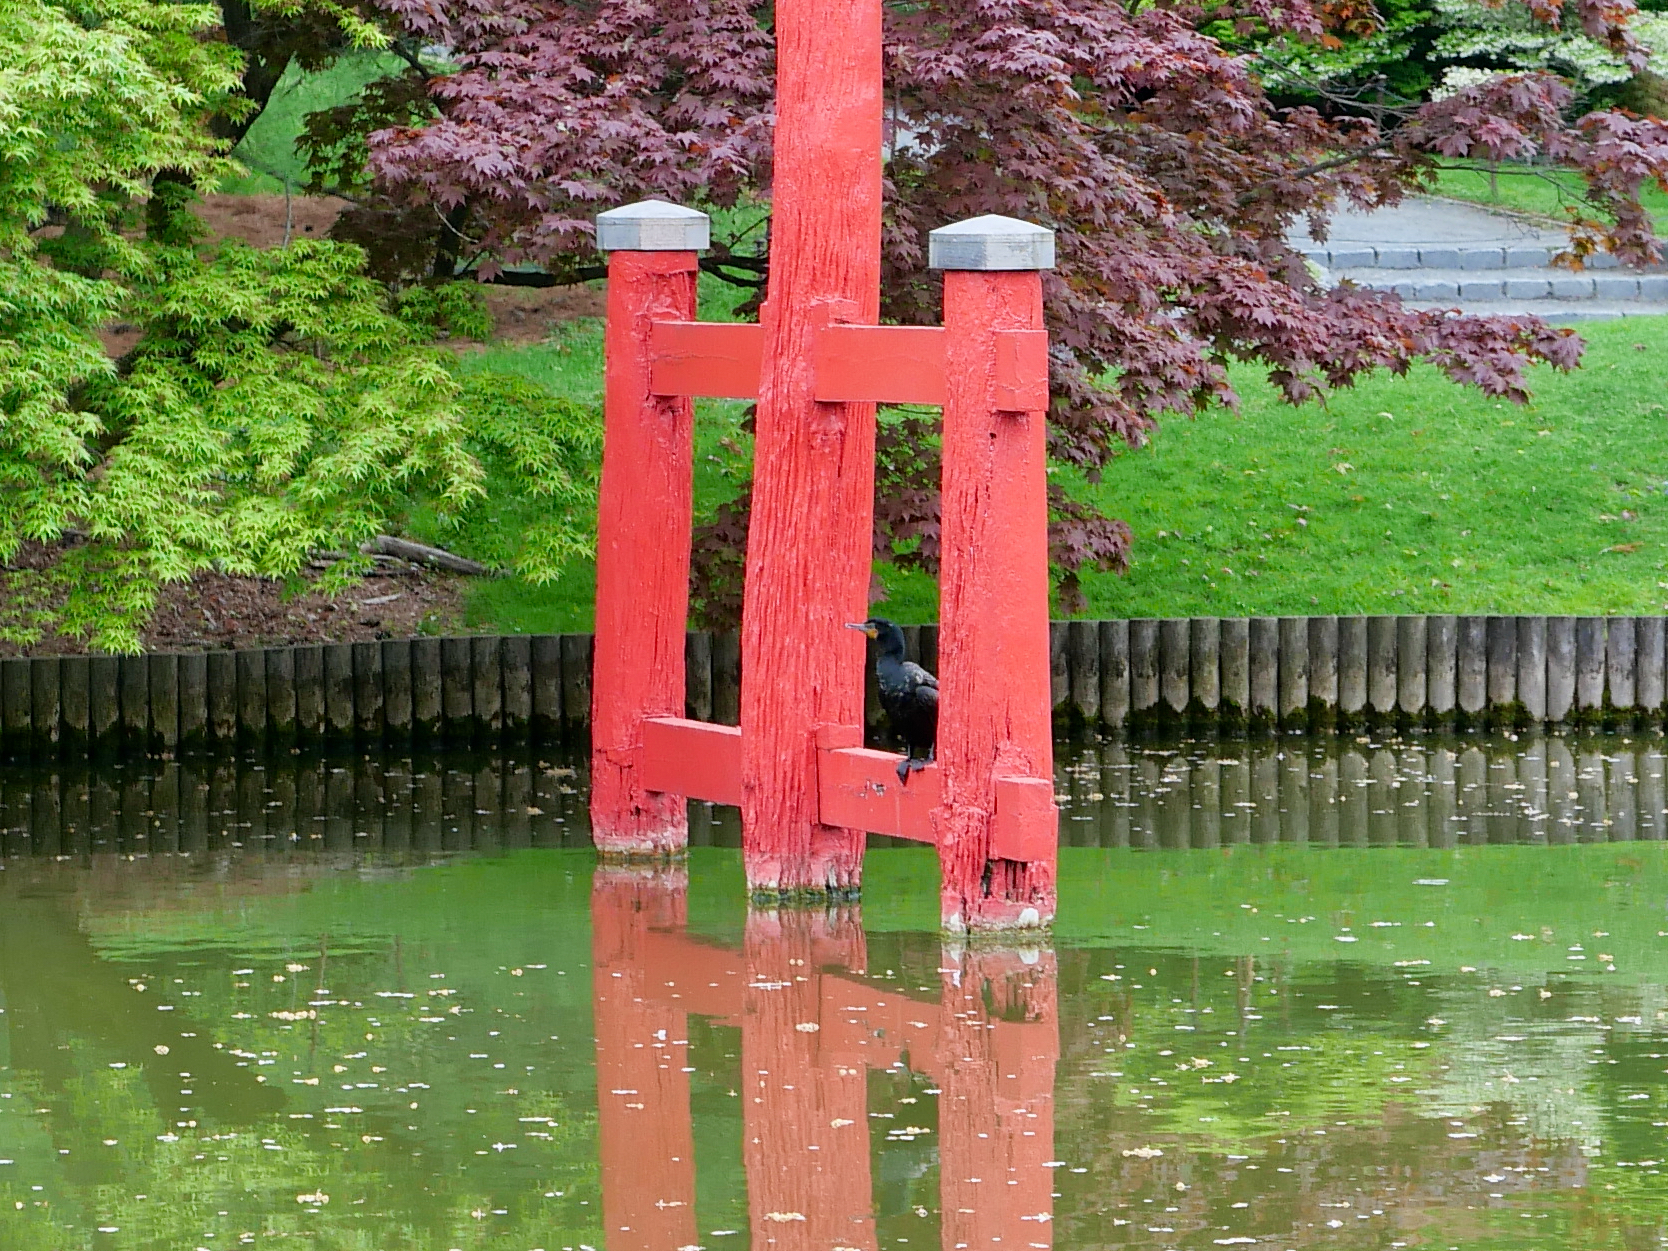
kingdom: Animalia
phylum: Chordata
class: Aves
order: Suliformes
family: Phalacrocoracidae
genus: Phalacrocorax
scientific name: Phalacrocorax auritus
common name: Double-crested cormorant
